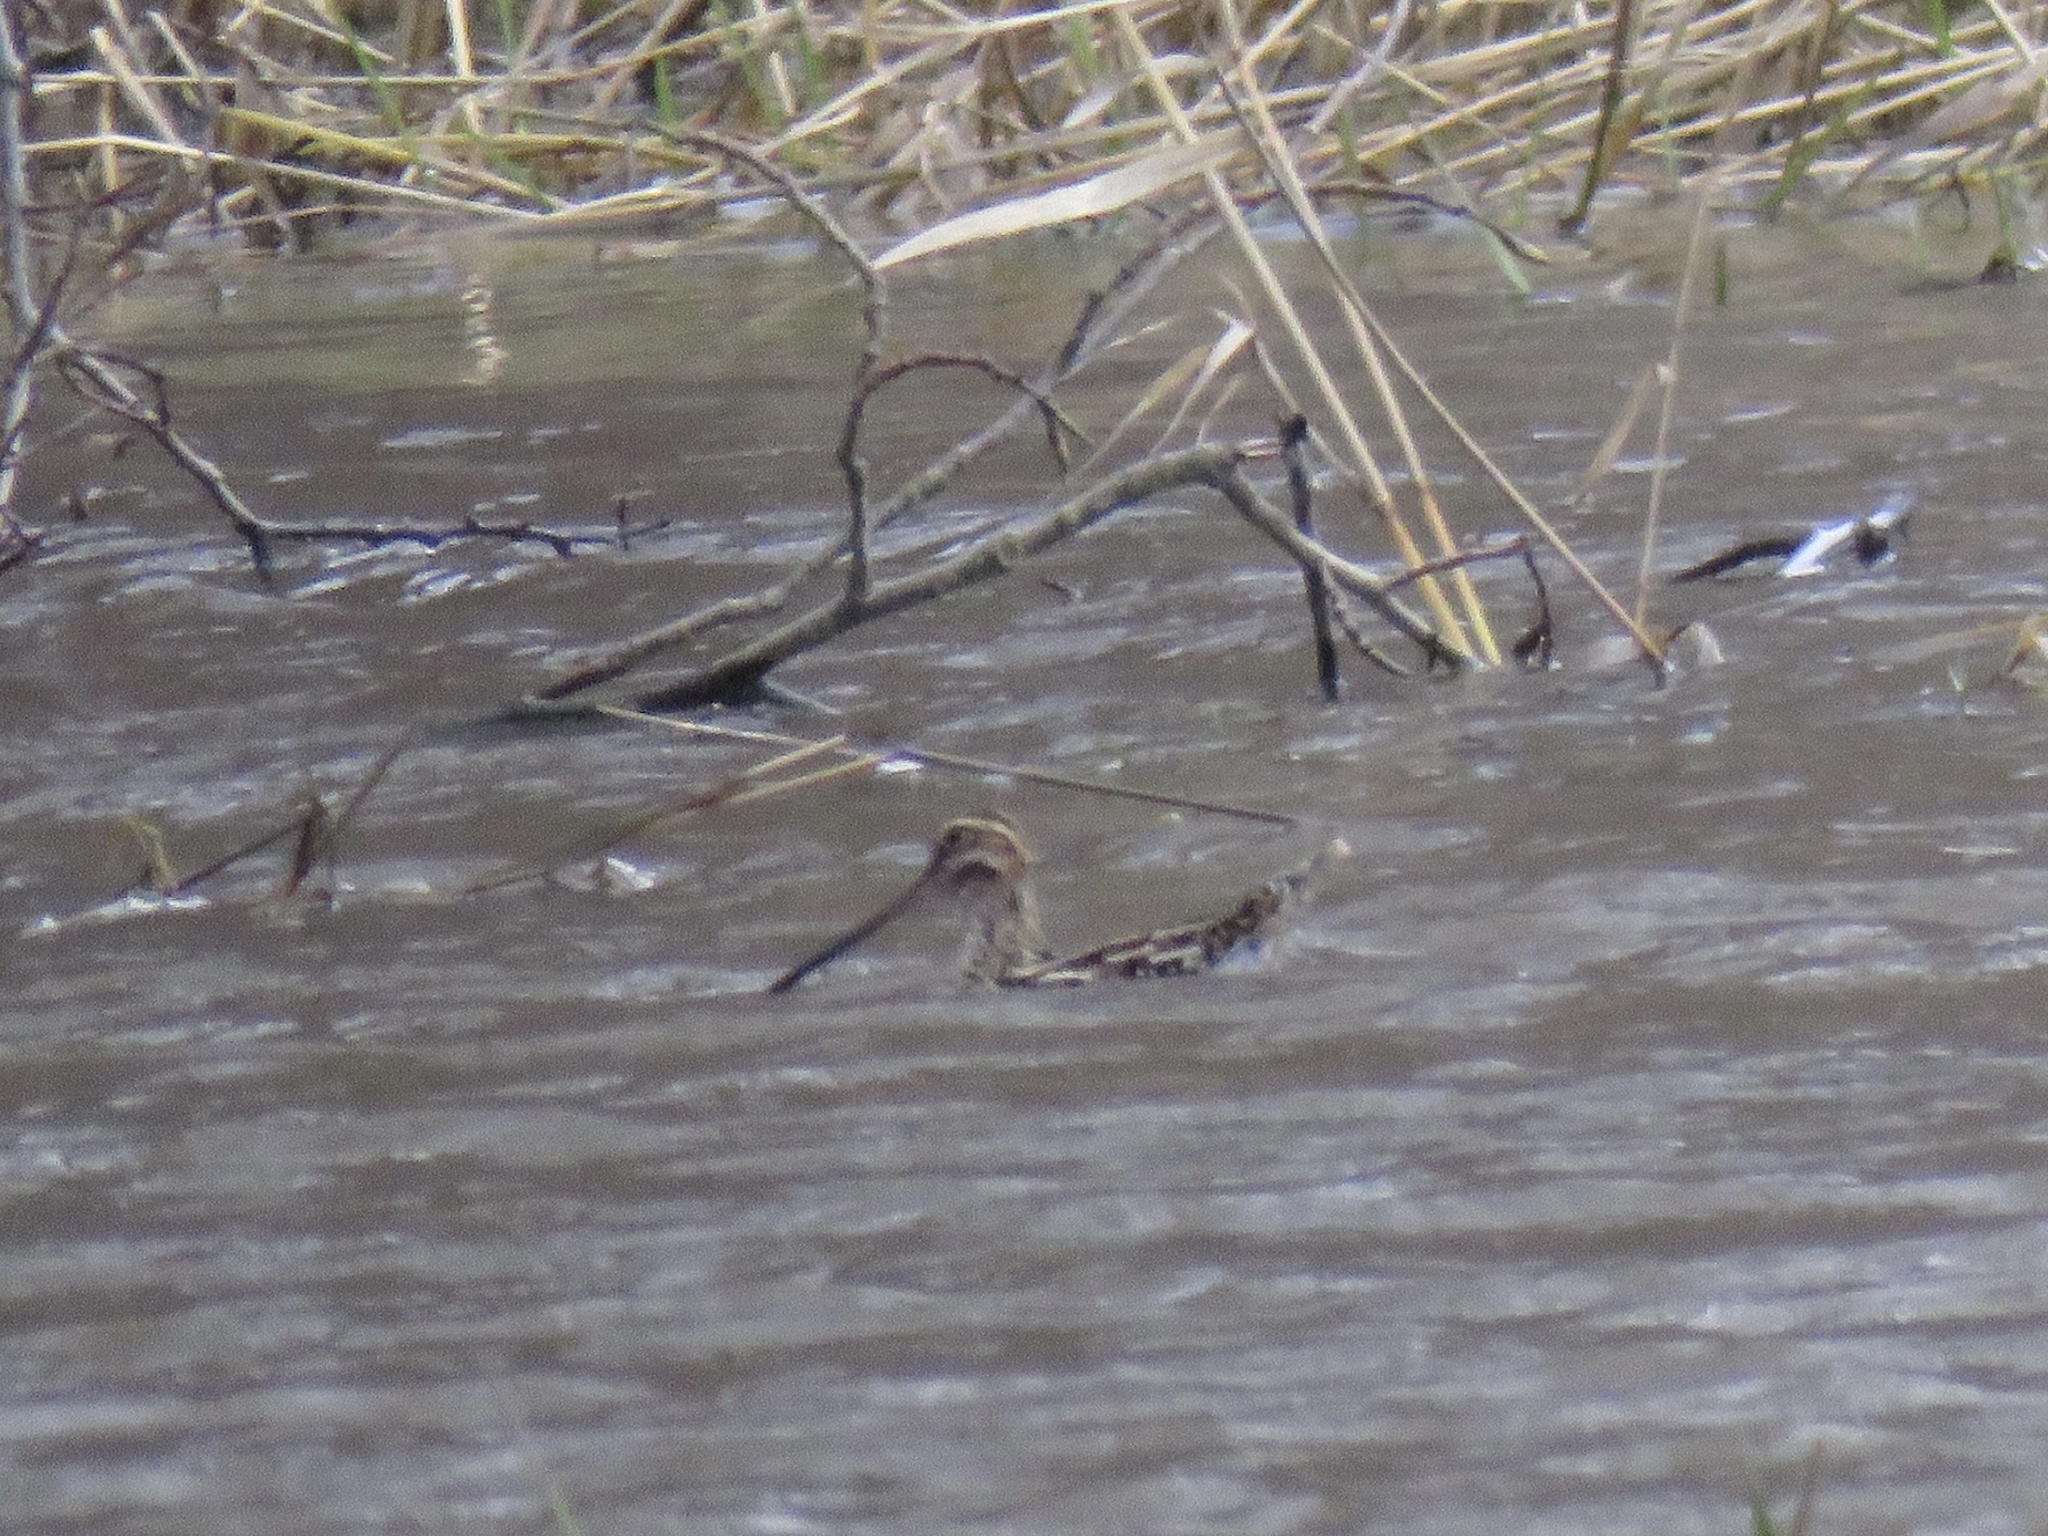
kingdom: Animalia
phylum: Chordata
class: Aves
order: Charadriiformes
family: Scolopacidae
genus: Gallinago
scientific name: Gallinago delicata
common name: Wilson's snipe
